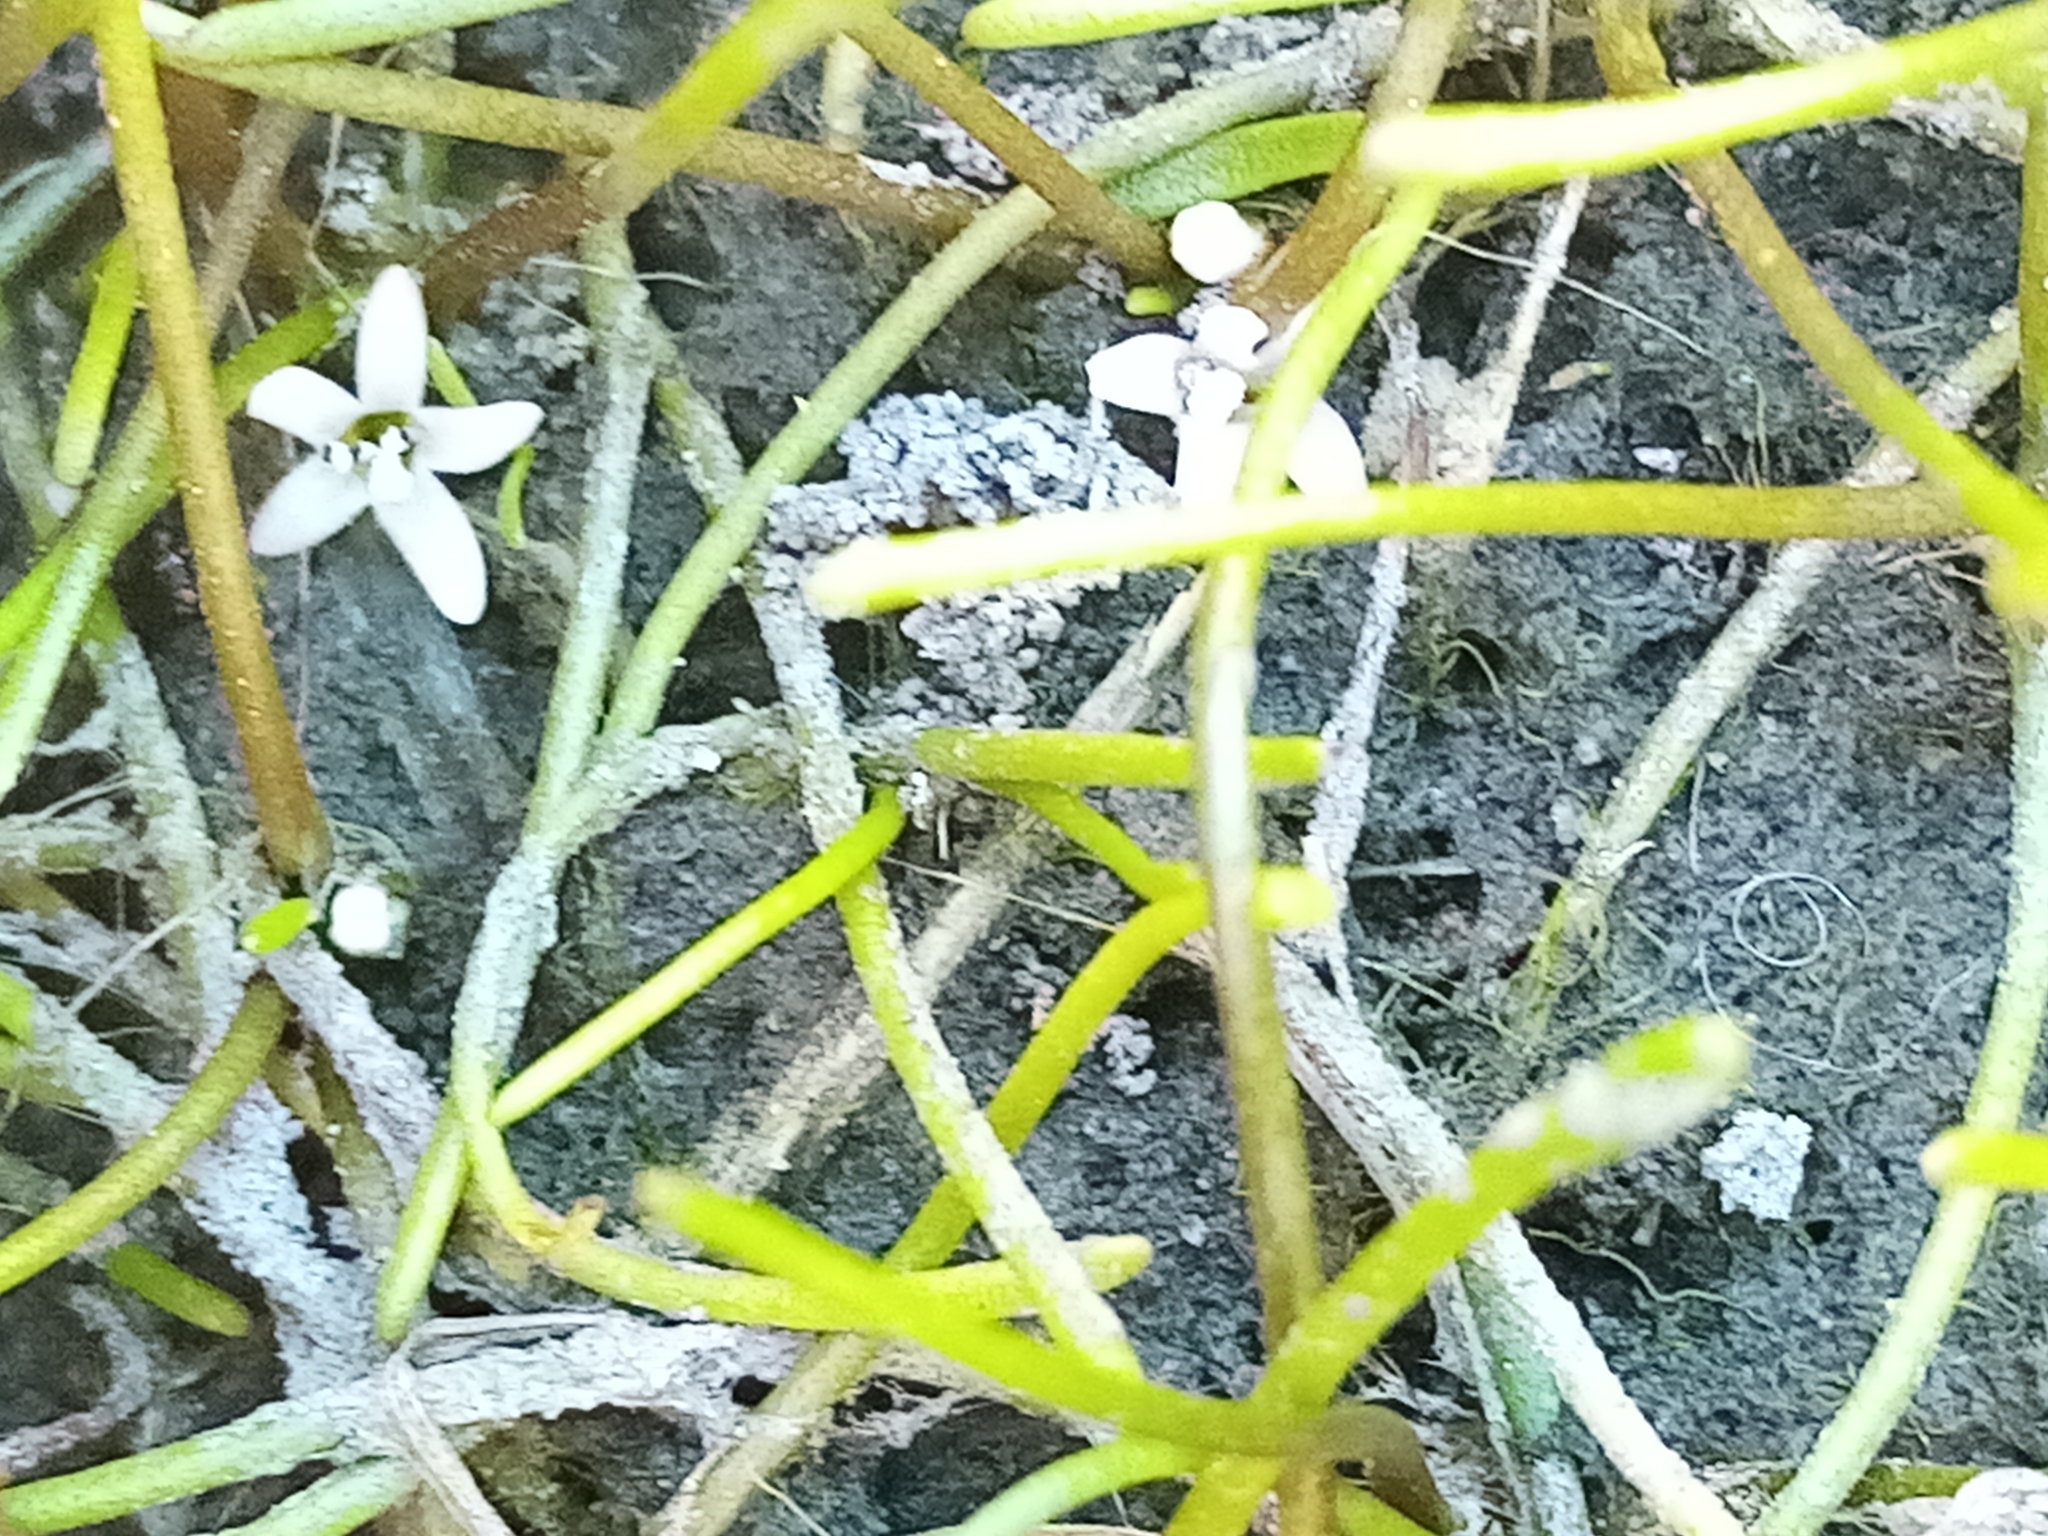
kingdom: Plantae
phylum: Tracheophyta
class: Magnoliopsida
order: Lamiales
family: Scrophulariaceae
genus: Limosella
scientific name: Limosella australis
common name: Welsh mudwort
